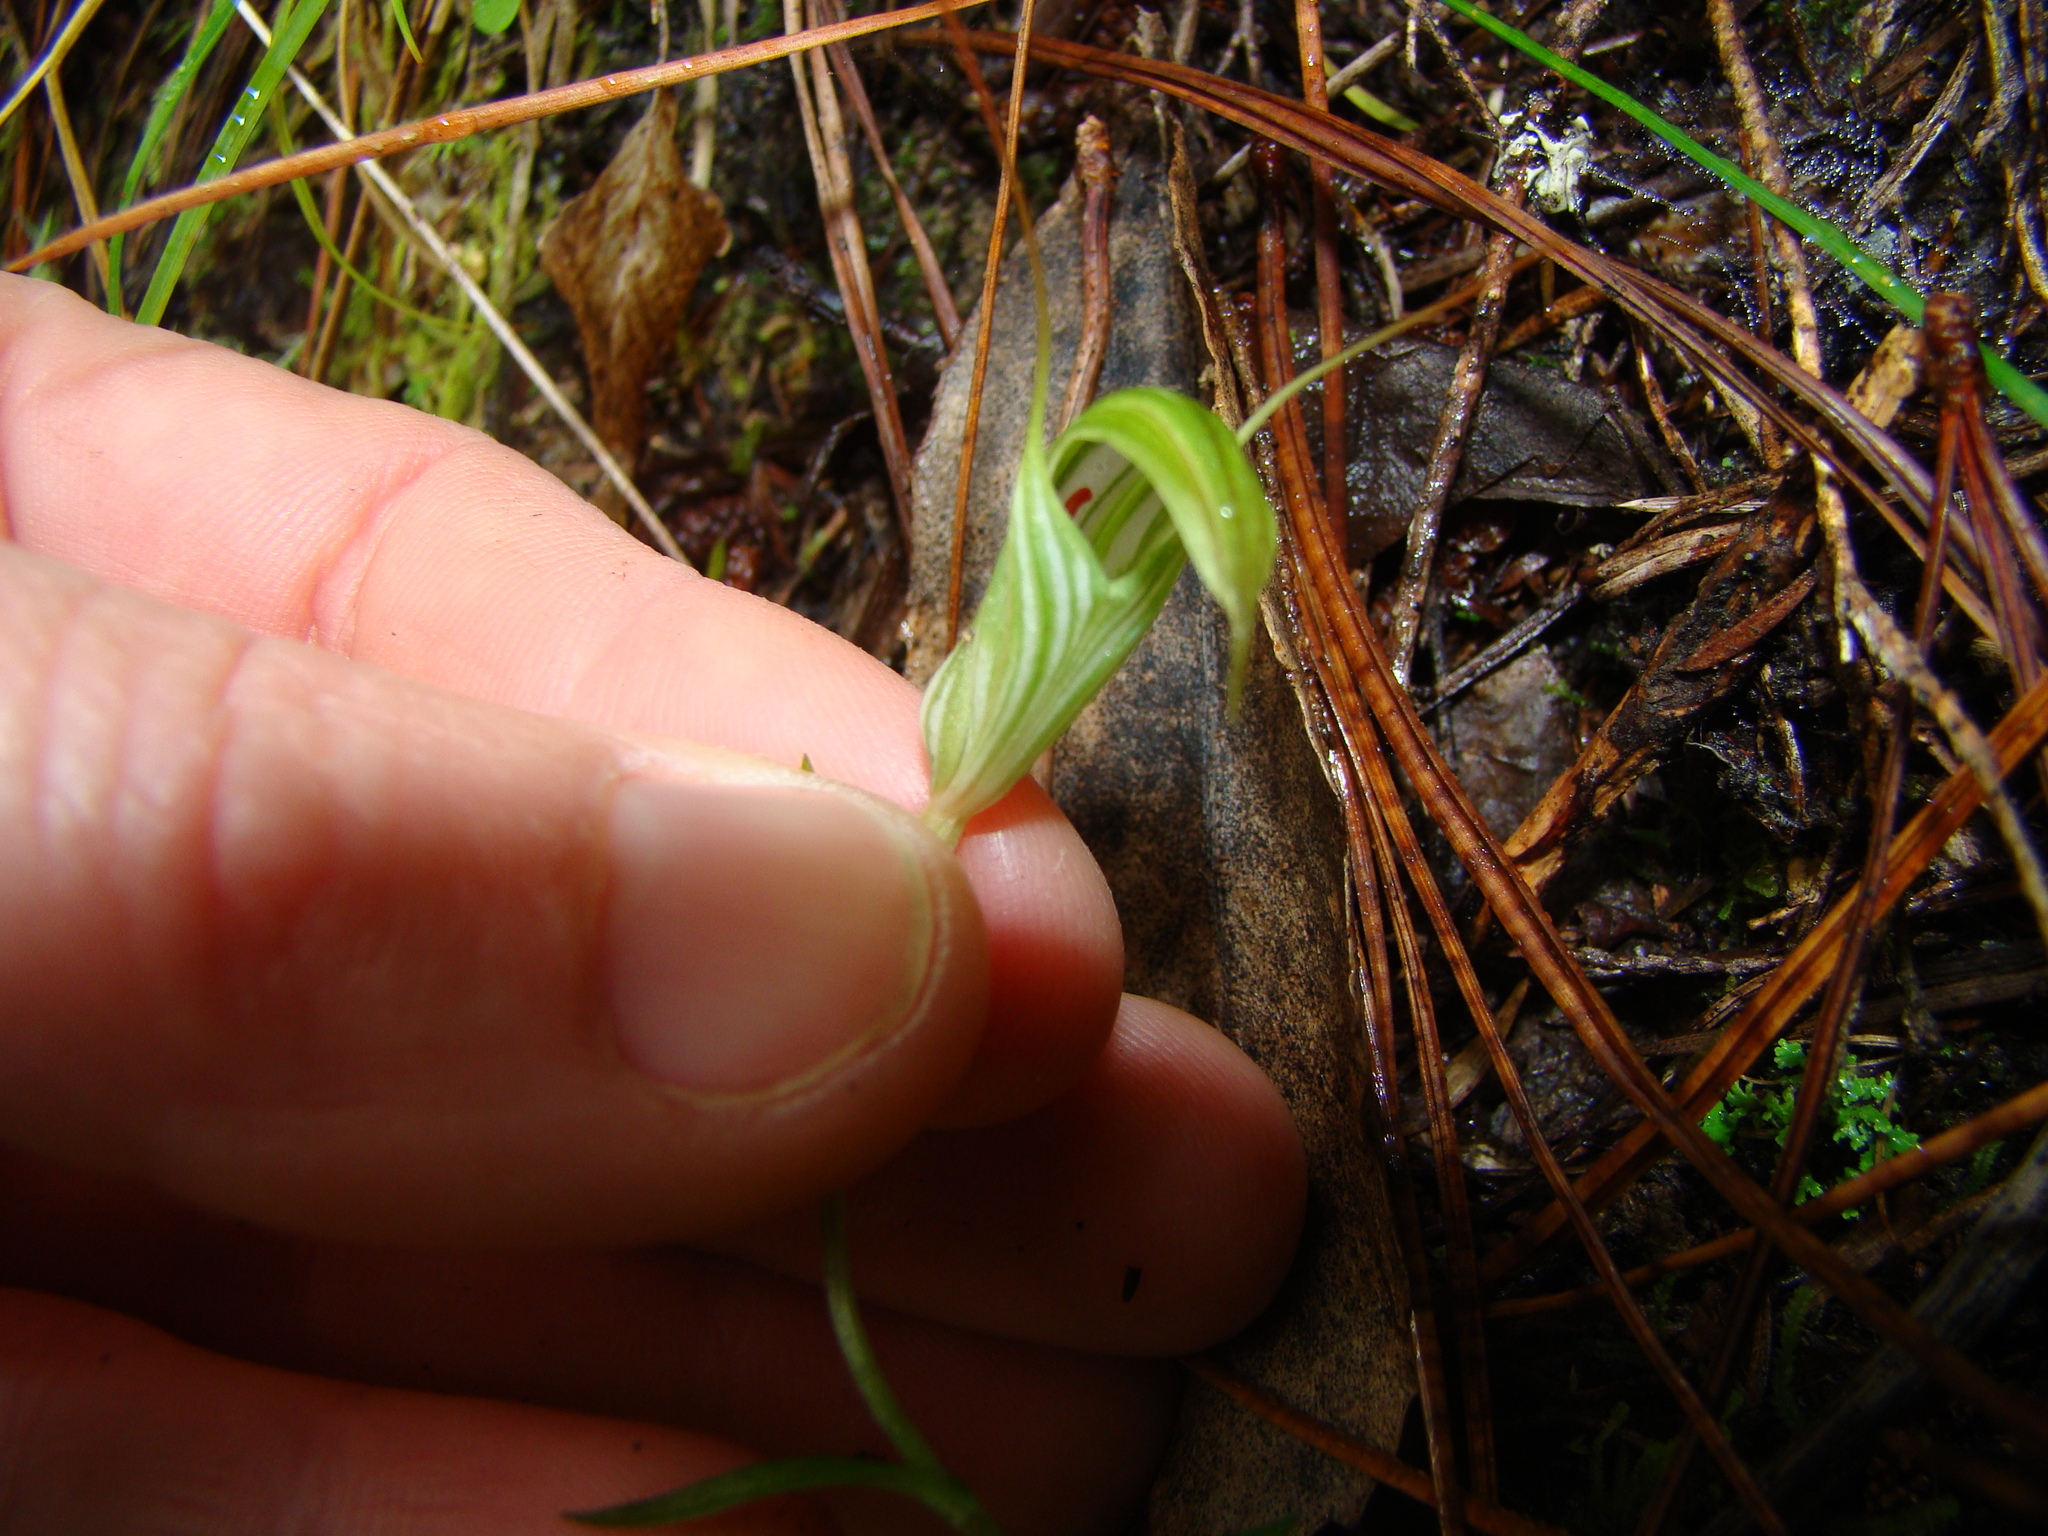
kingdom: Plantae
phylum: Tracheophyta
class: Liliopsida
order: Asparagales
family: Orchidaceae
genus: Pterostylis
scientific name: Pterostylis alobula
